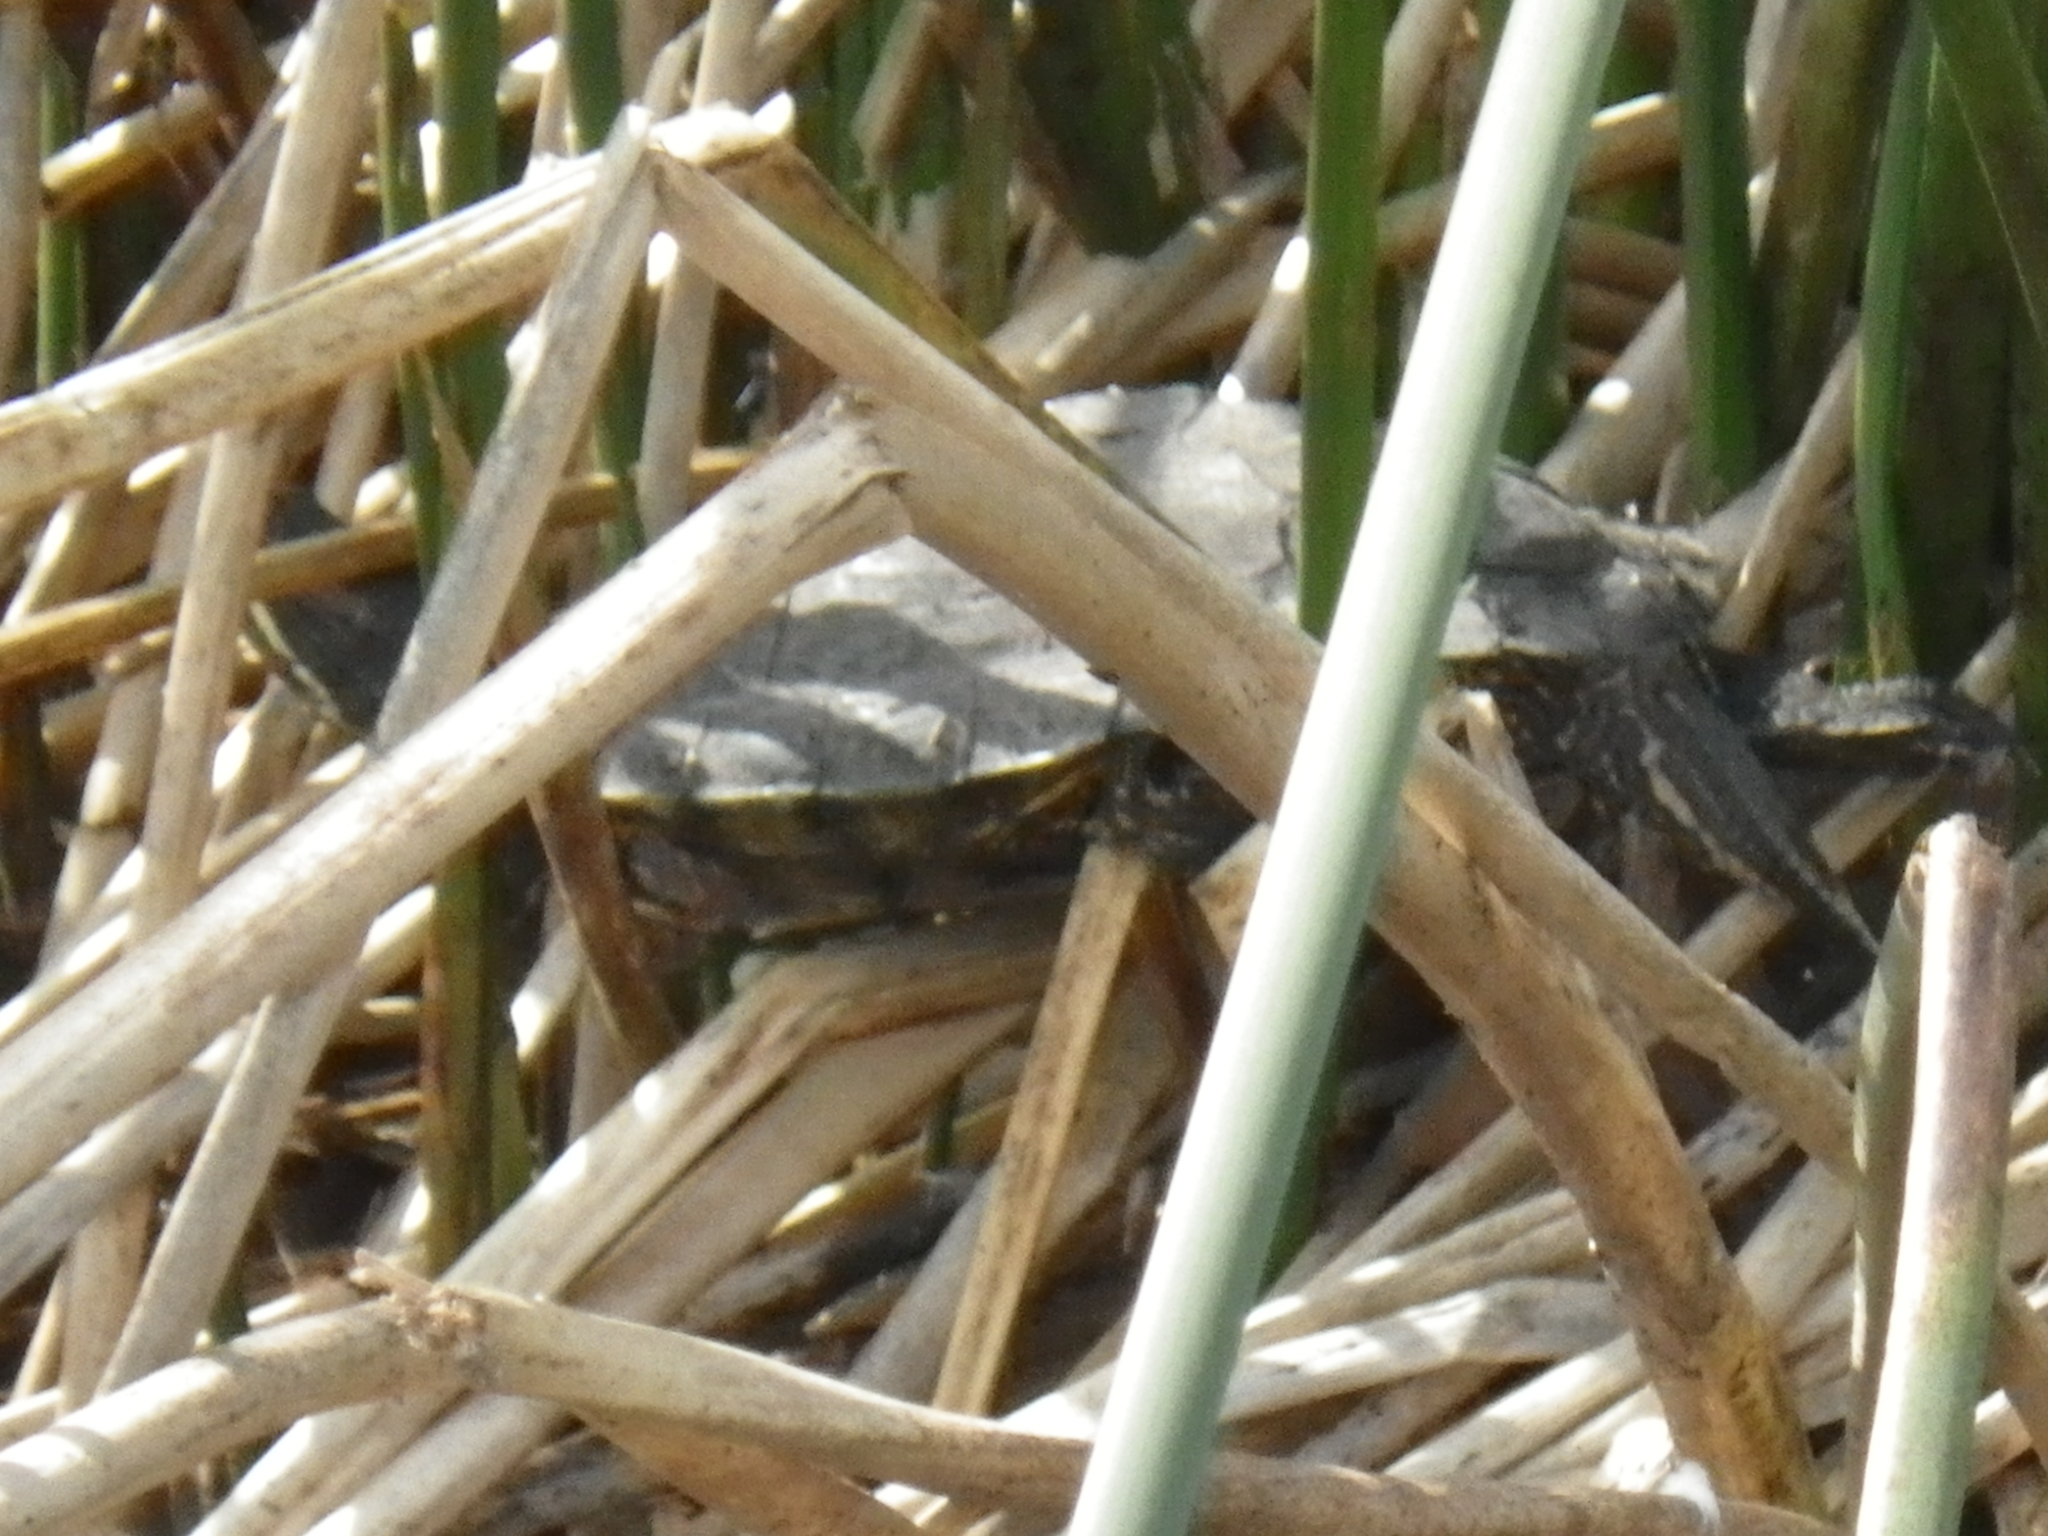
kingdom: Animalia
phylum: Chordata
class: Testudines
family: Emydidae
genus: Trachemys
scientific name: Trachemys scripta
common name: Slider
